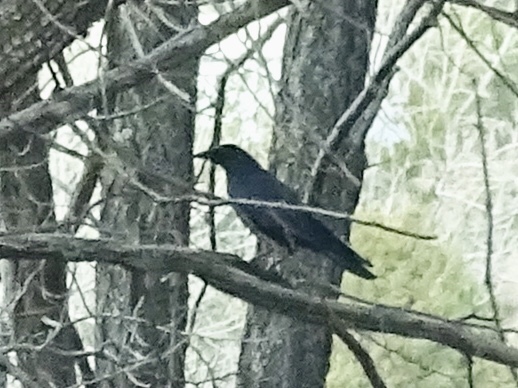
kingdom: Animalia
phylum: Chordata
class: Aves
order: Passeriformes
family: Corvidae
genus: Corvus
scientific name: Corvus brachyrhynchos
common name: American crow
